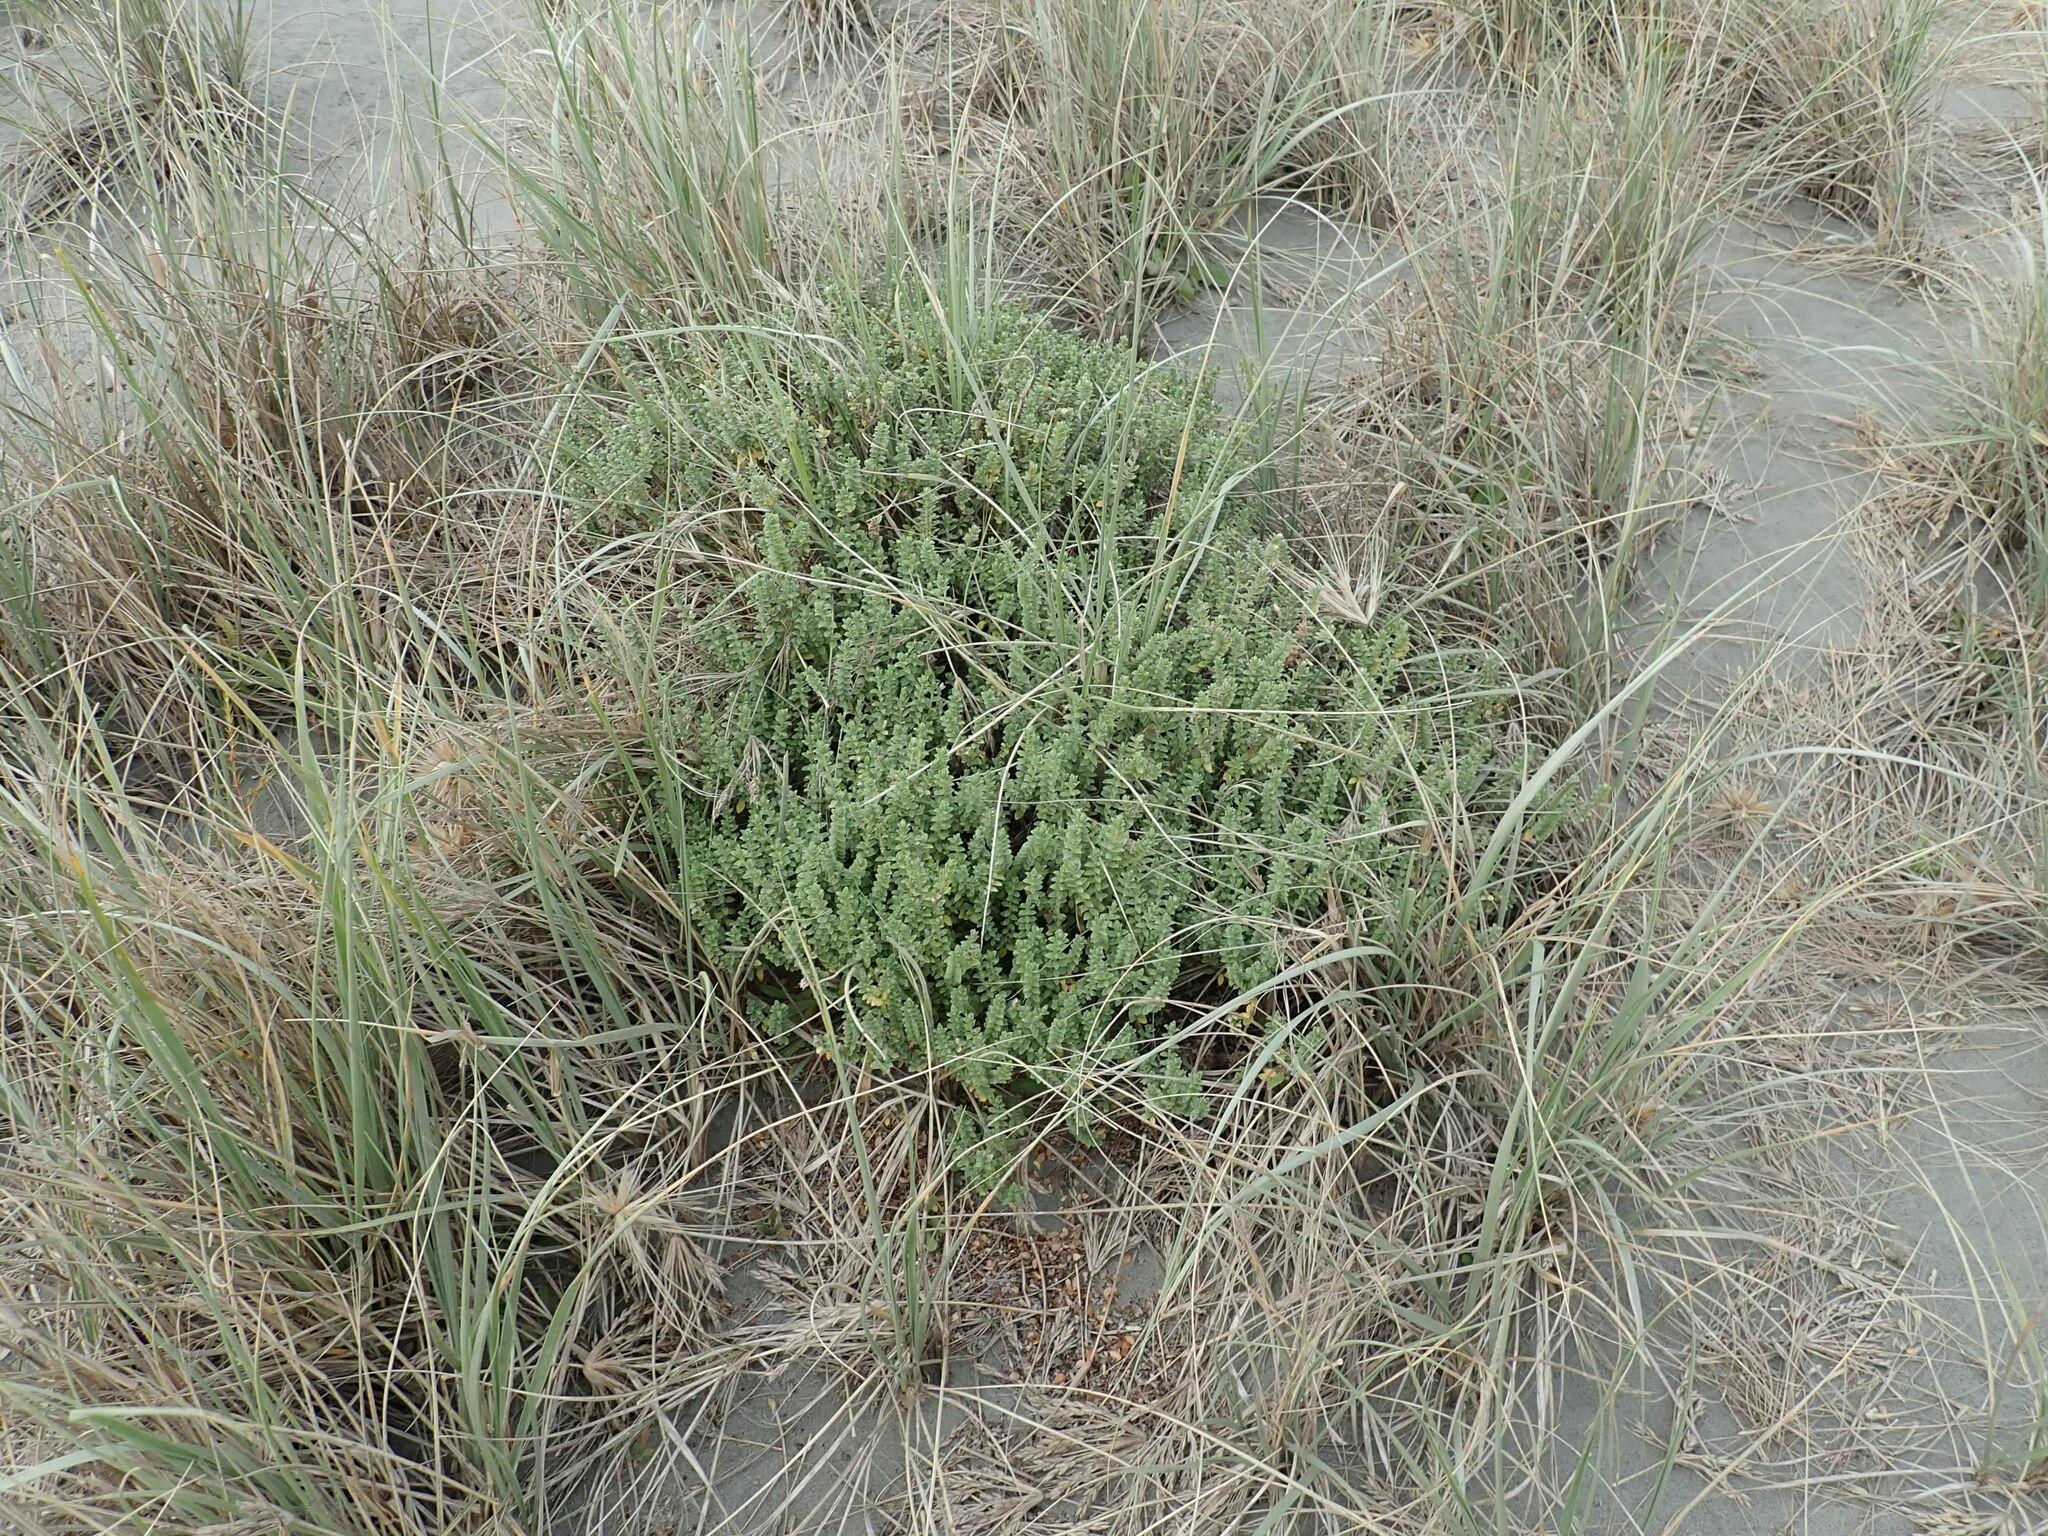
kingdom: Plantae
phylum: Tracheophyta
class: Magnoliopsida
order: Malvales
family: Thymelaeaceae
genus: Pimelea
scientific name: Pimelea villosa
